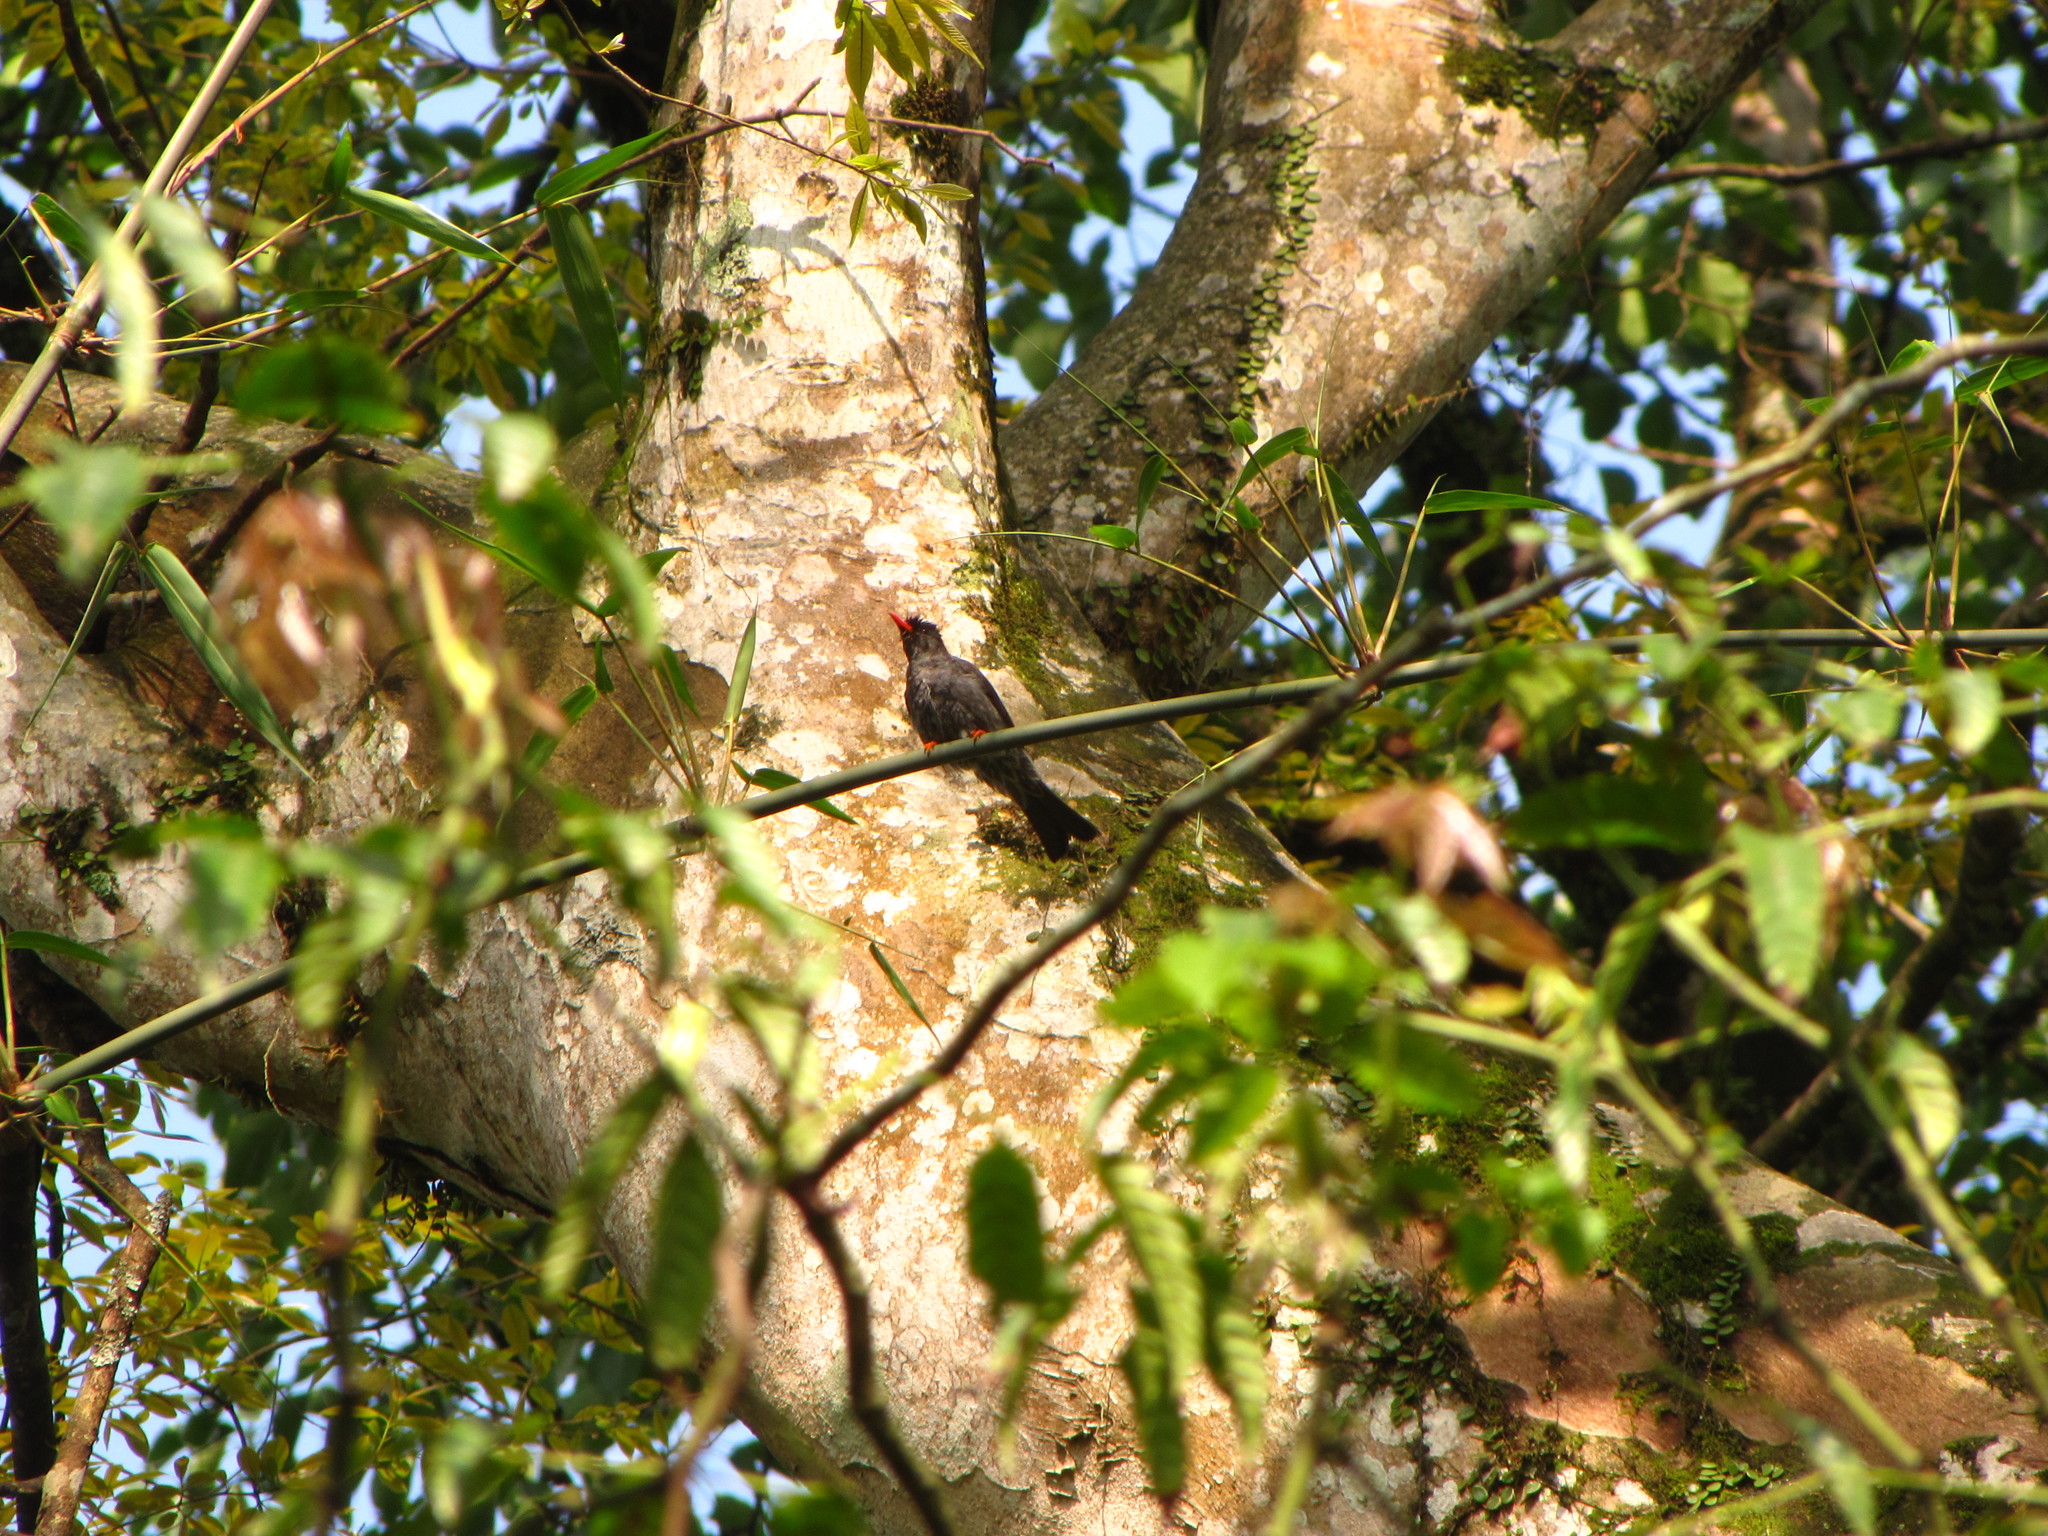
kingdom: Animalia
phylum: Chordata
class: Aves
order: Passeriformes
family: Pycnonotidae
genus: Hypsipetes
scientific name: Hypsipetes leucocephalus
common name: Black bulbul
